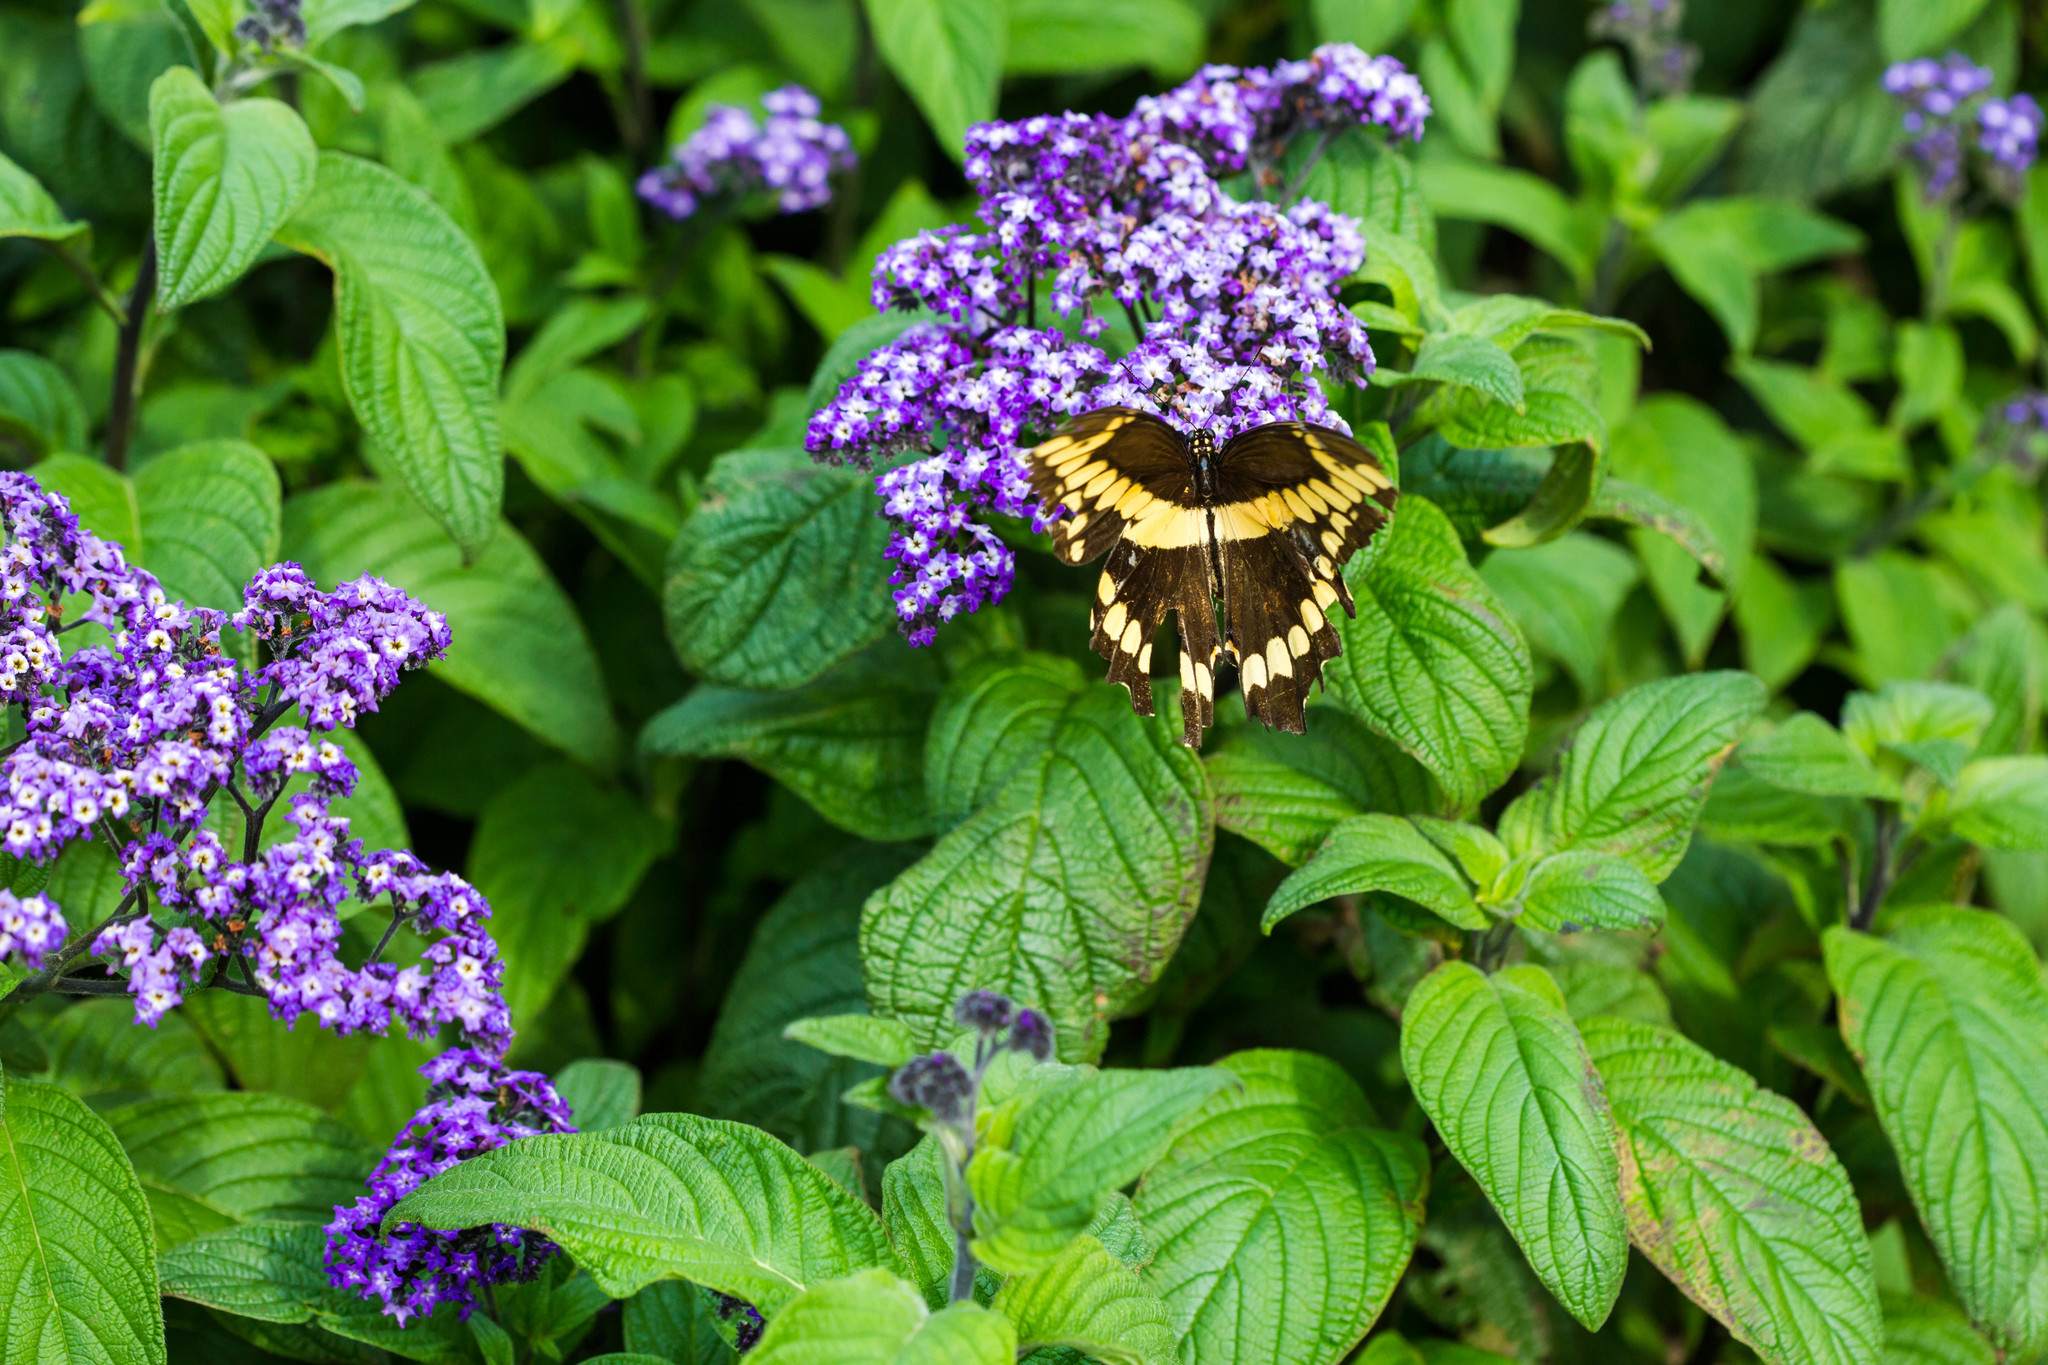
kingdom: Animalia
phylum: Arthropoda
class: Insecta
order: Lepidoptera
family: Papilionidae
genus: Papilio
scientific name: Papilio cresphontes
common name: Giant swallowtail
